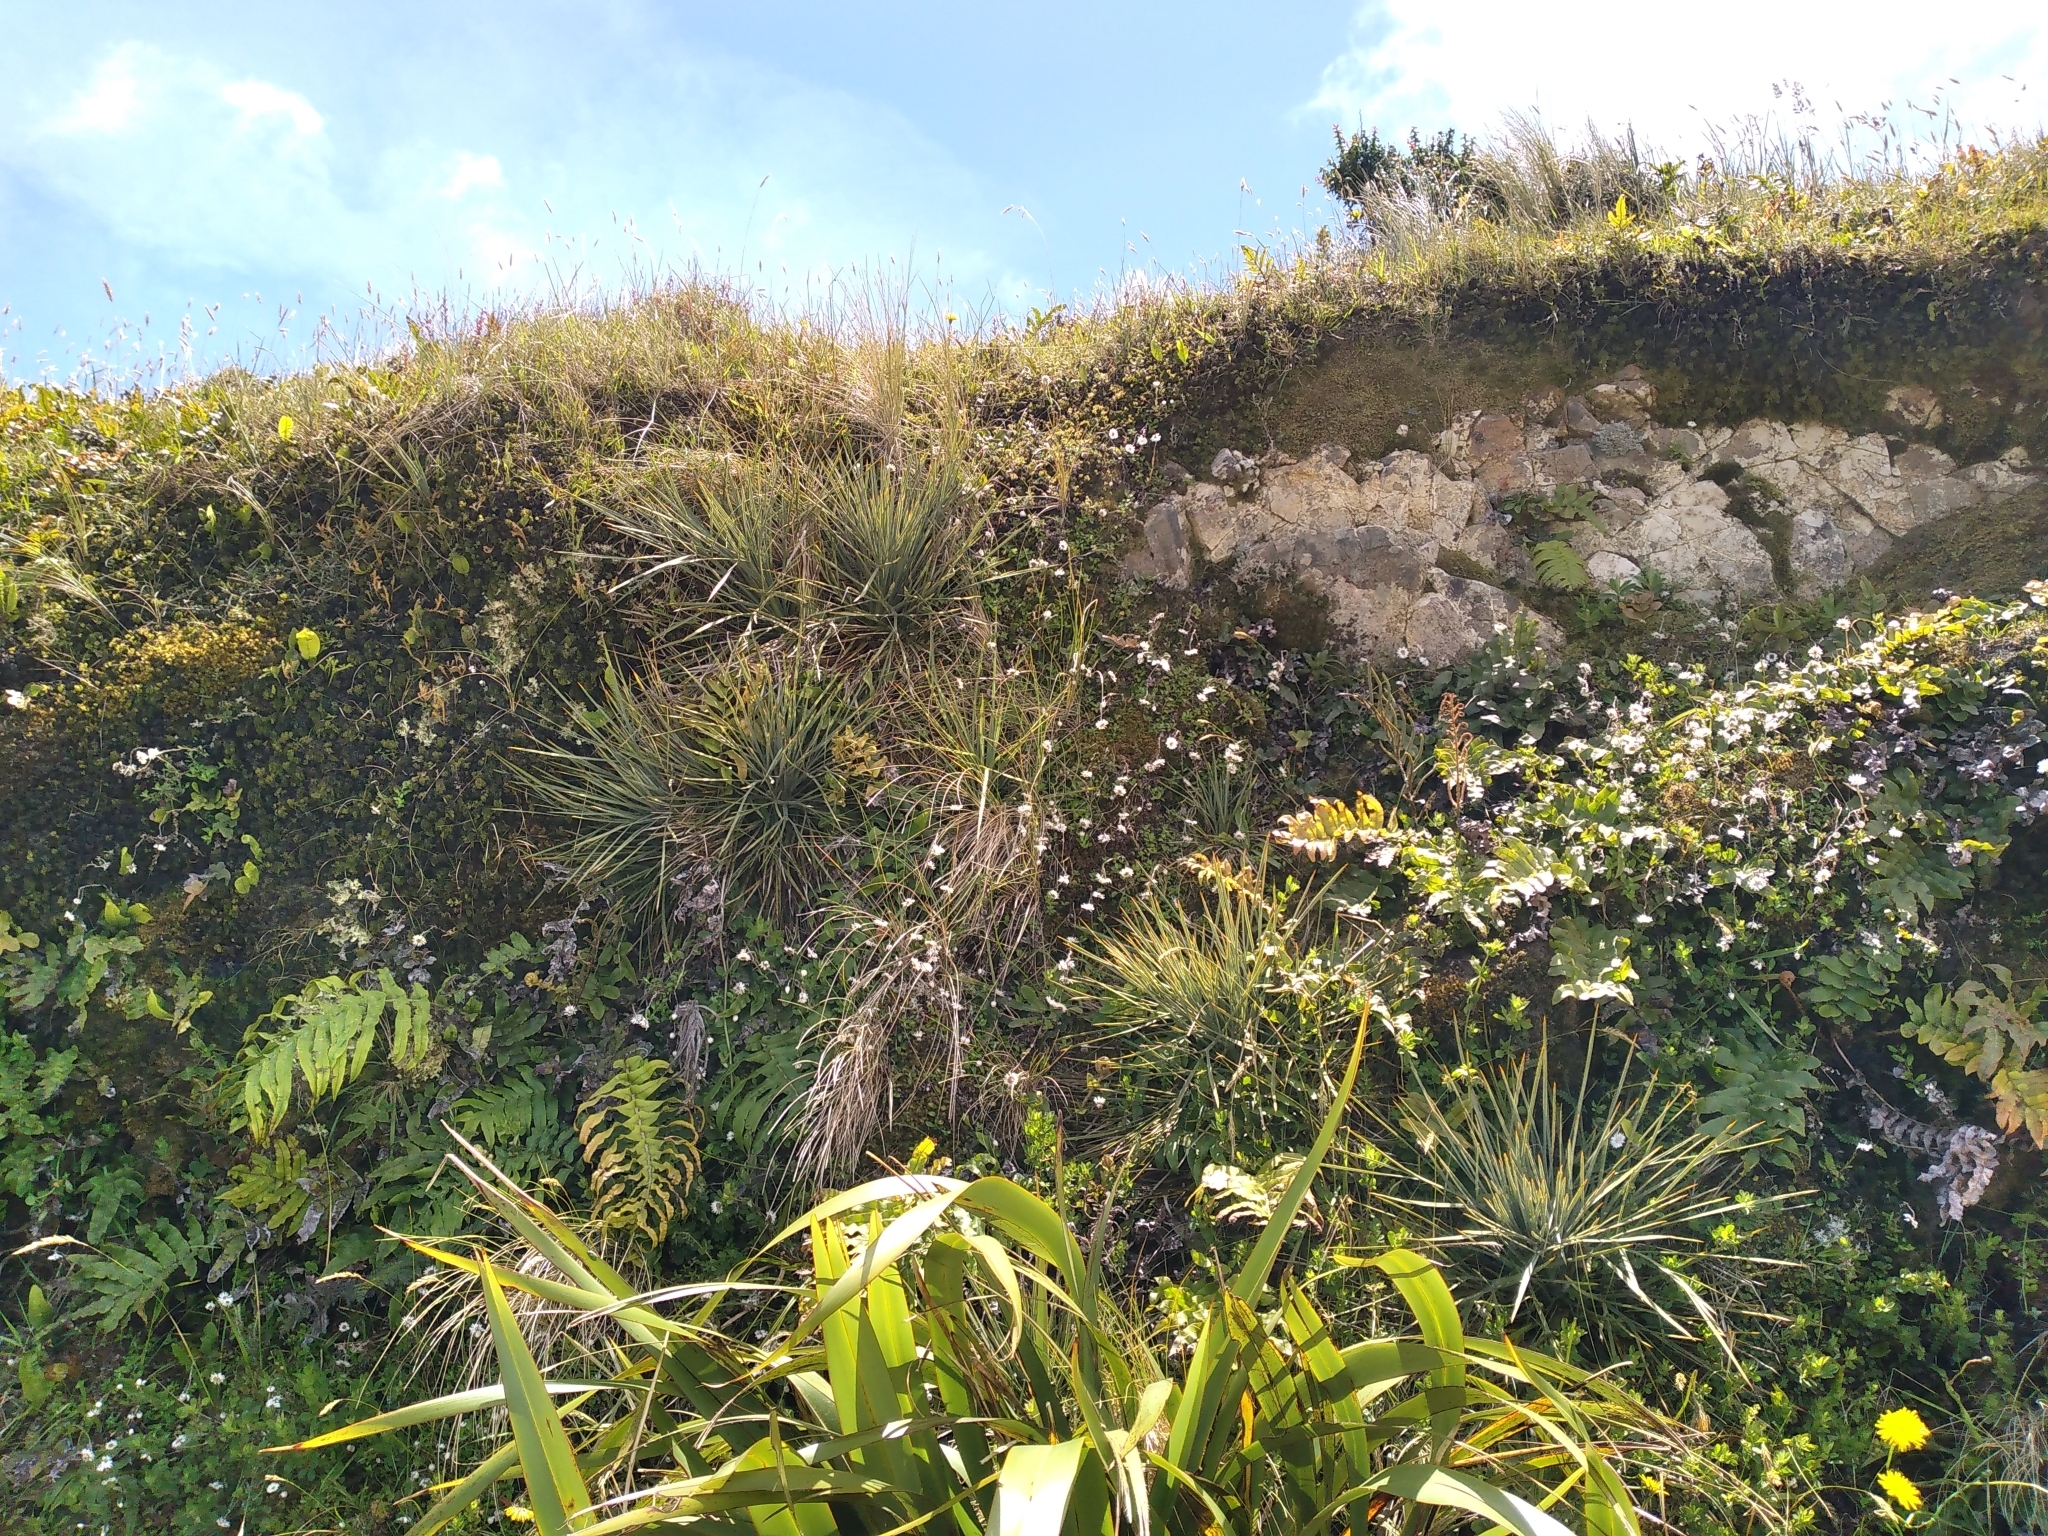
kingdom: Plantae
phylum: Tracheophyta
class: Magnoliopsida
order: Apiales
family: Apiaceae
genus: Aciphylla
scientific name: Aciphylla squarrosa
